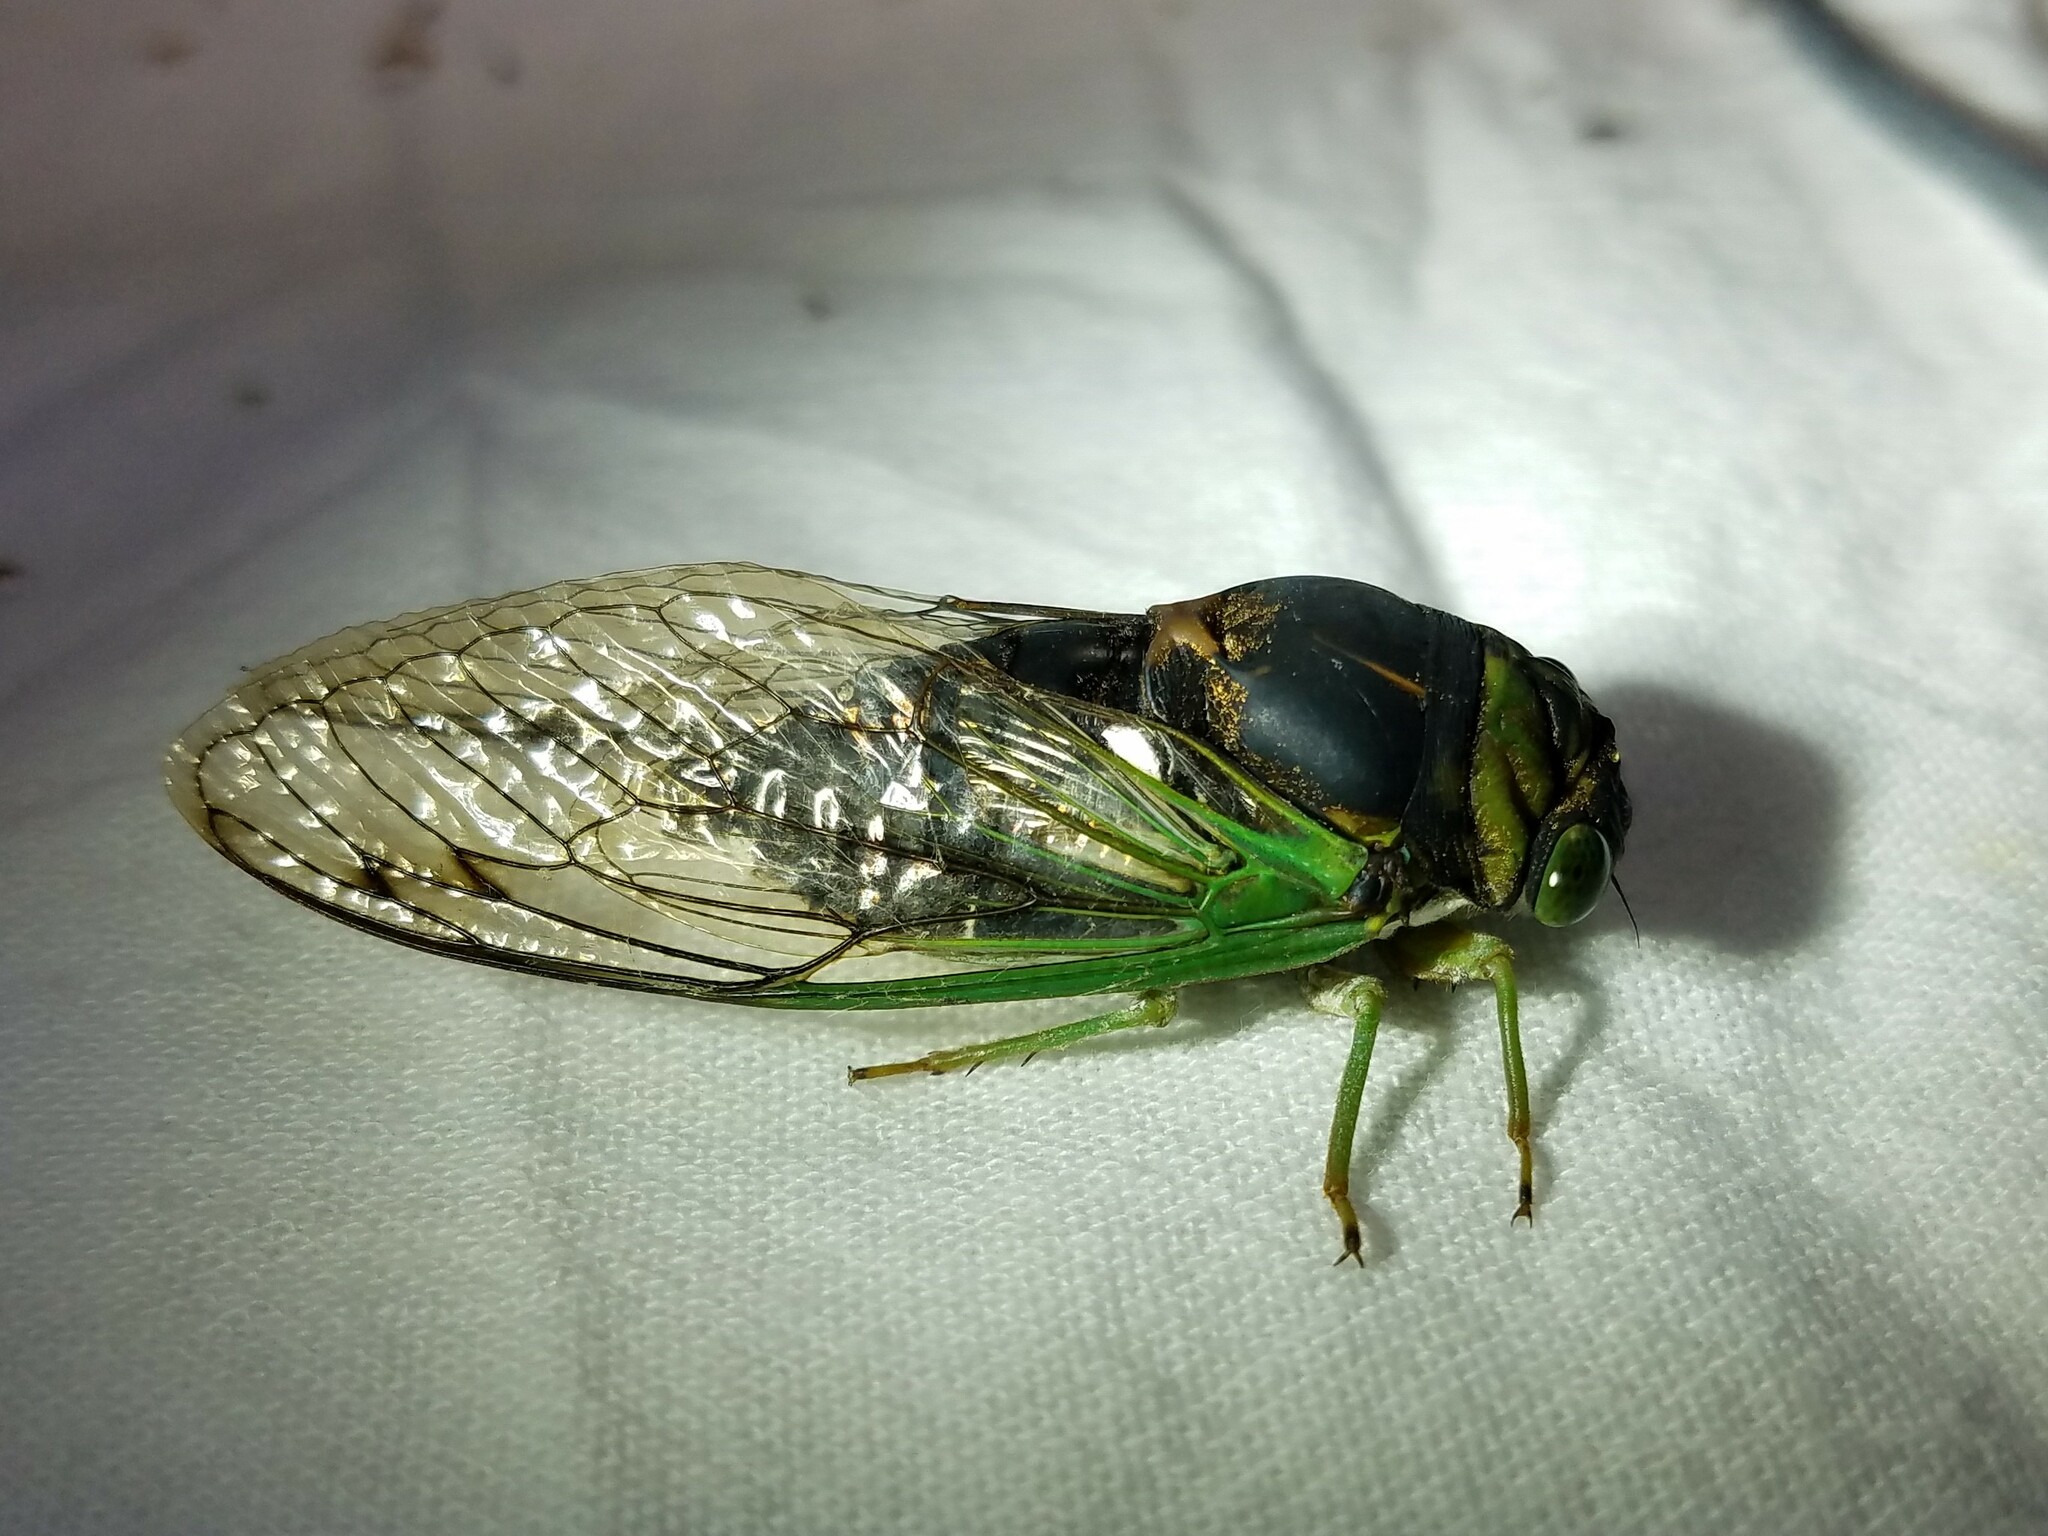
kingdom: Animalia
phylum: Arthropoda
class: Insecta
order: Hemiptera
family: Cicadidae
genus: Neotibicen
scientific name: Neotibicen tibicen
